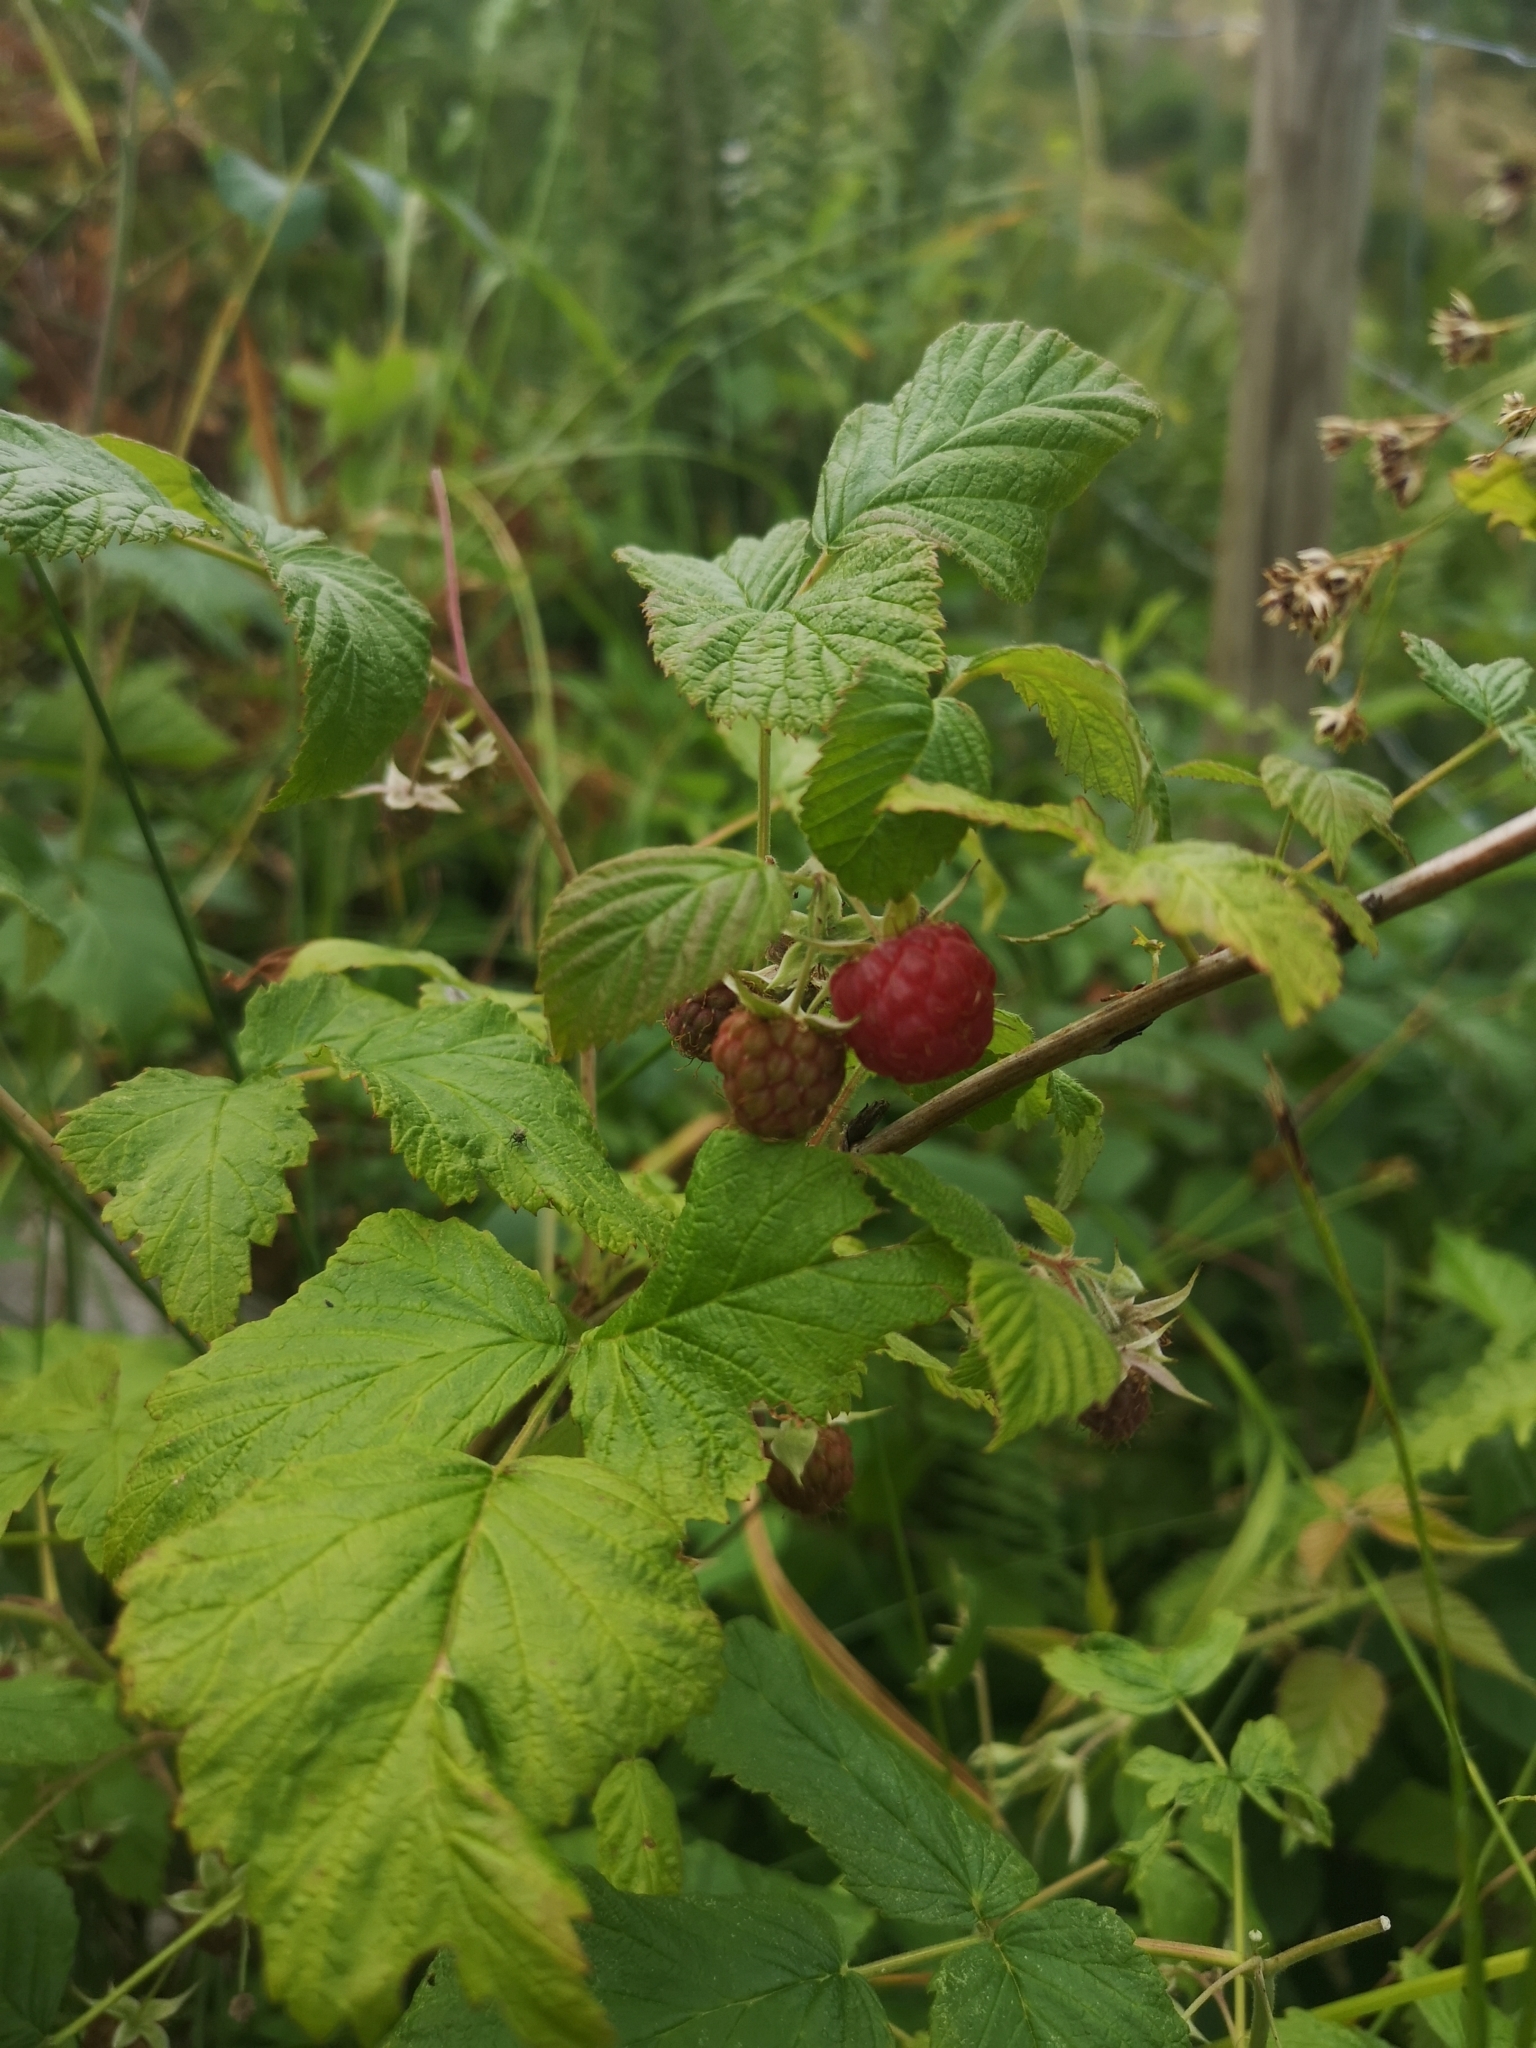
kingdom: Plantae
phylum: Tracheophyta
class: Magnoliopsida
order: Rosales
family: Rosaceae
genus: Rubus
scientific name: Rubus idaeus
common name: Raspberry
